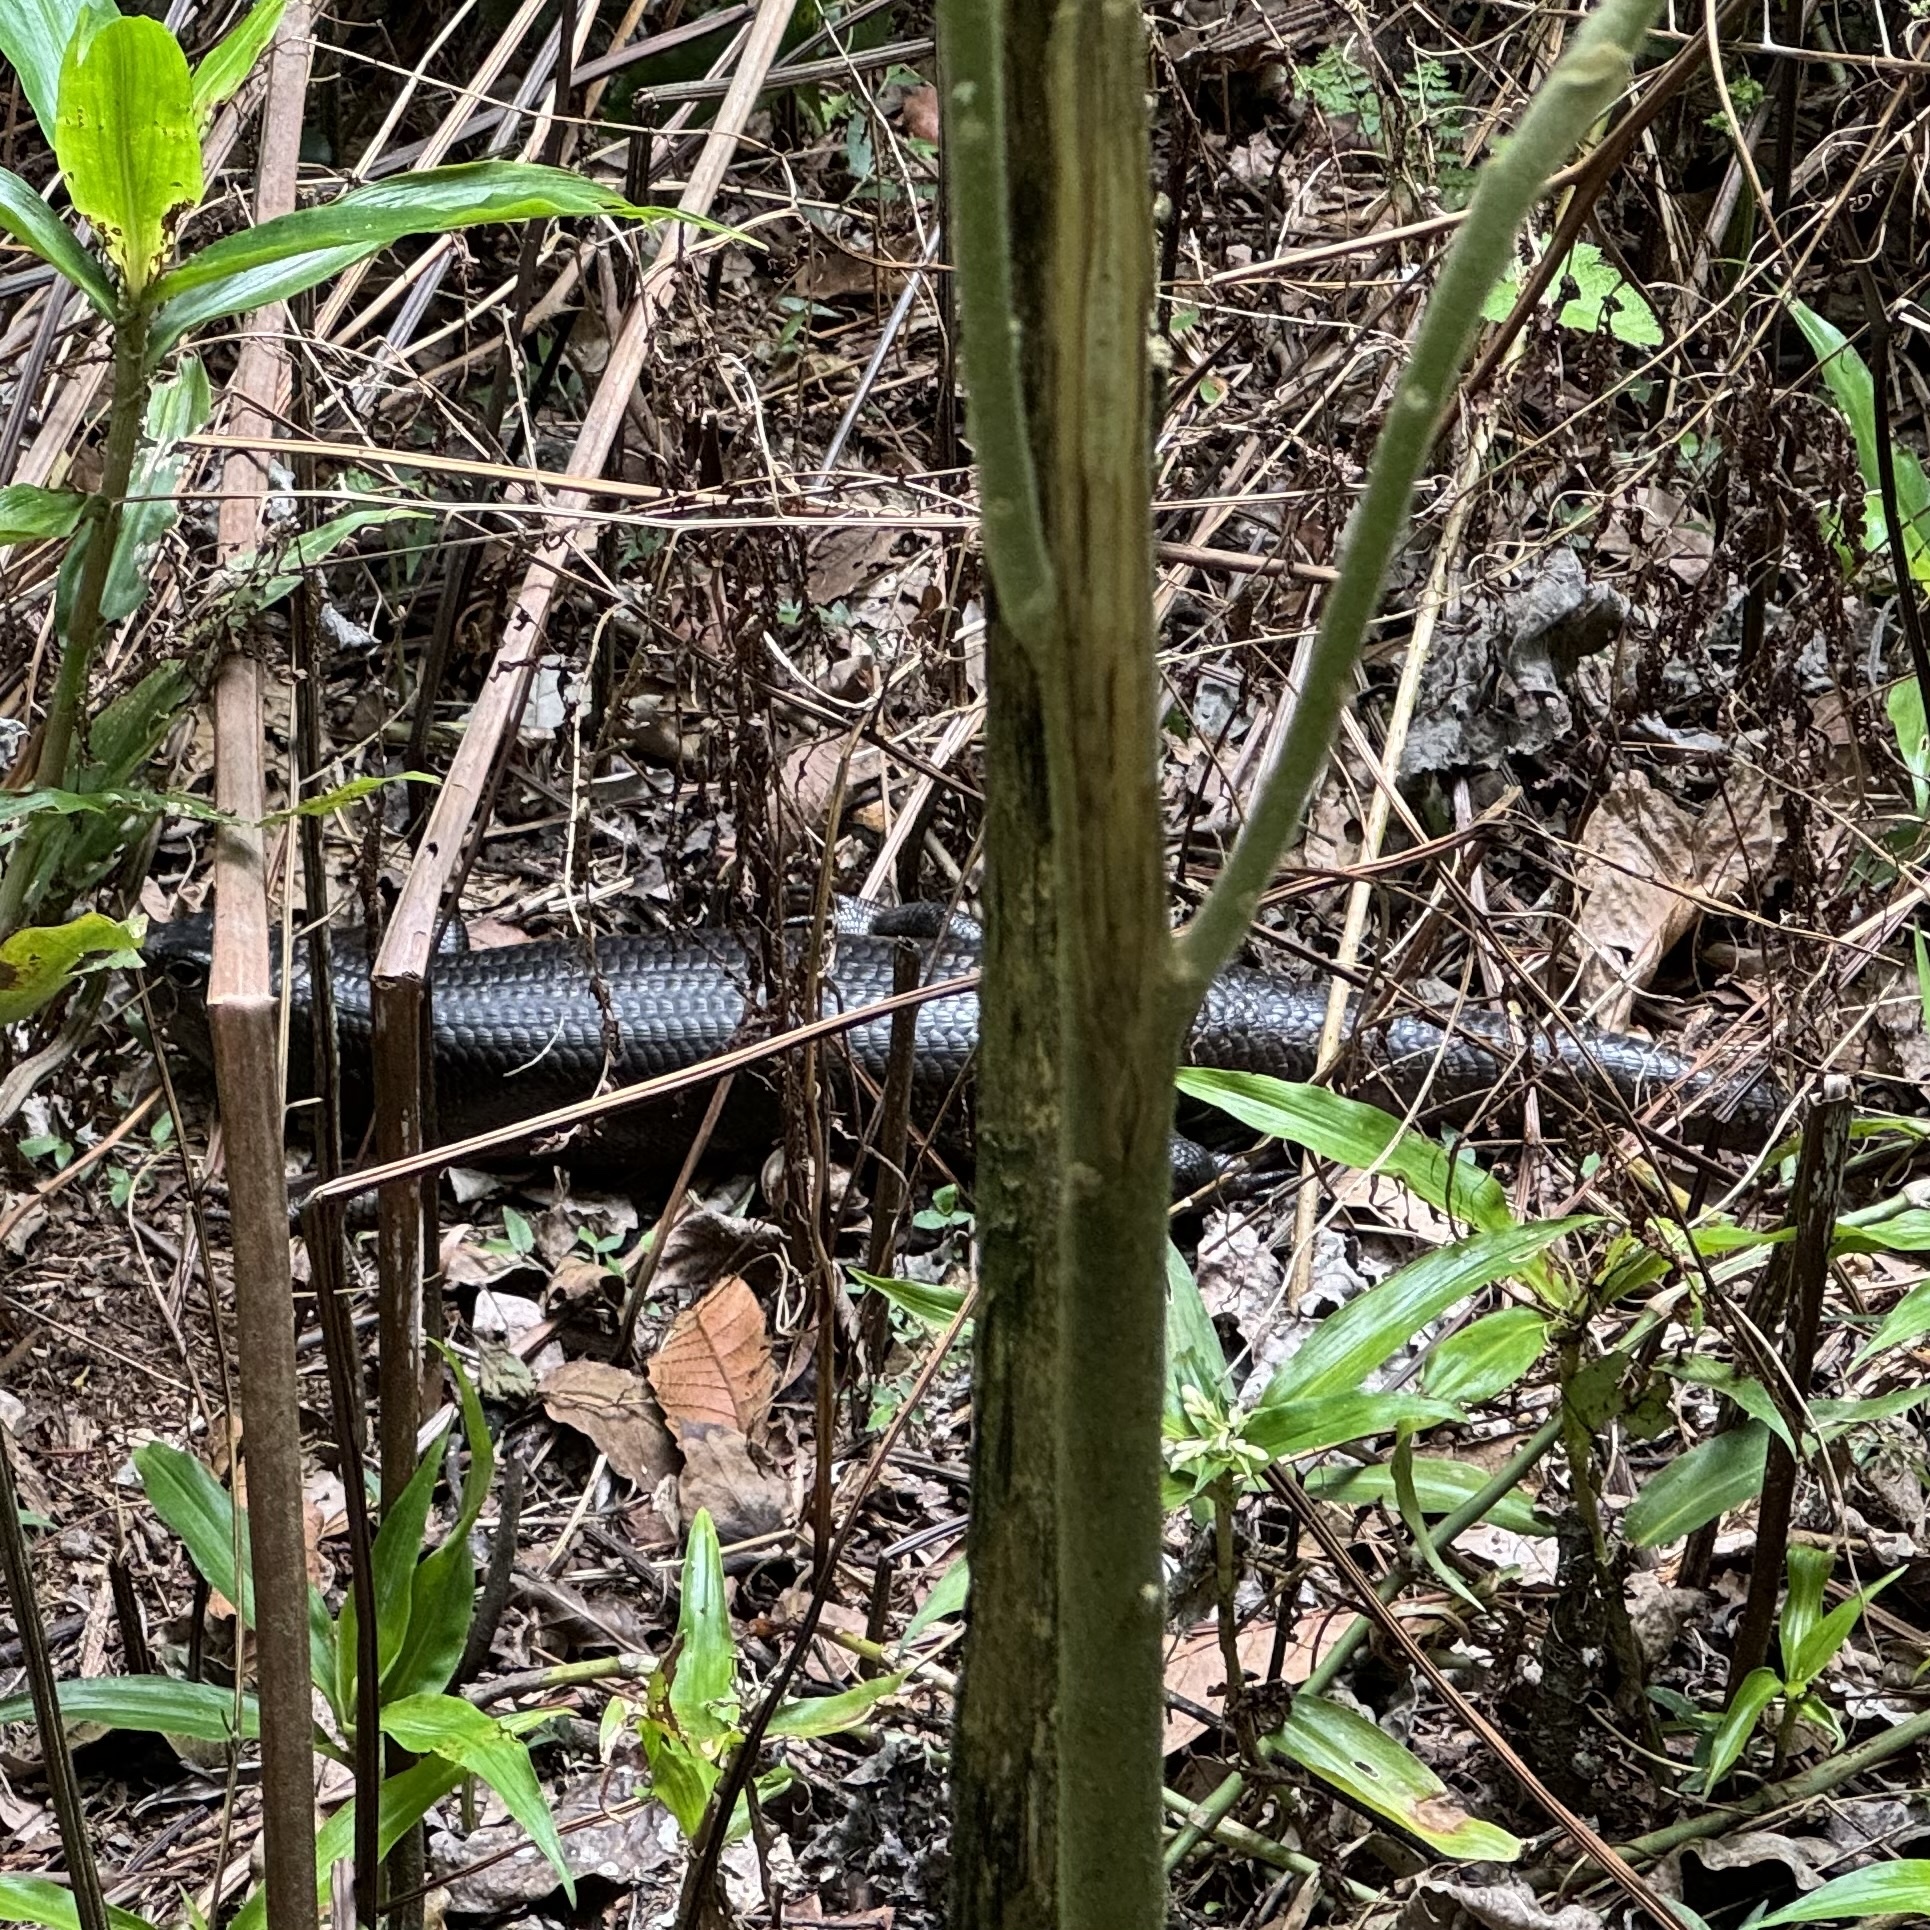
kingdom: Animalia
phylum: Chordata
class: Squamata
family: Scincidae
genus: Bellatorias
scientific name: Bellatorias major
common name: Land mullet
